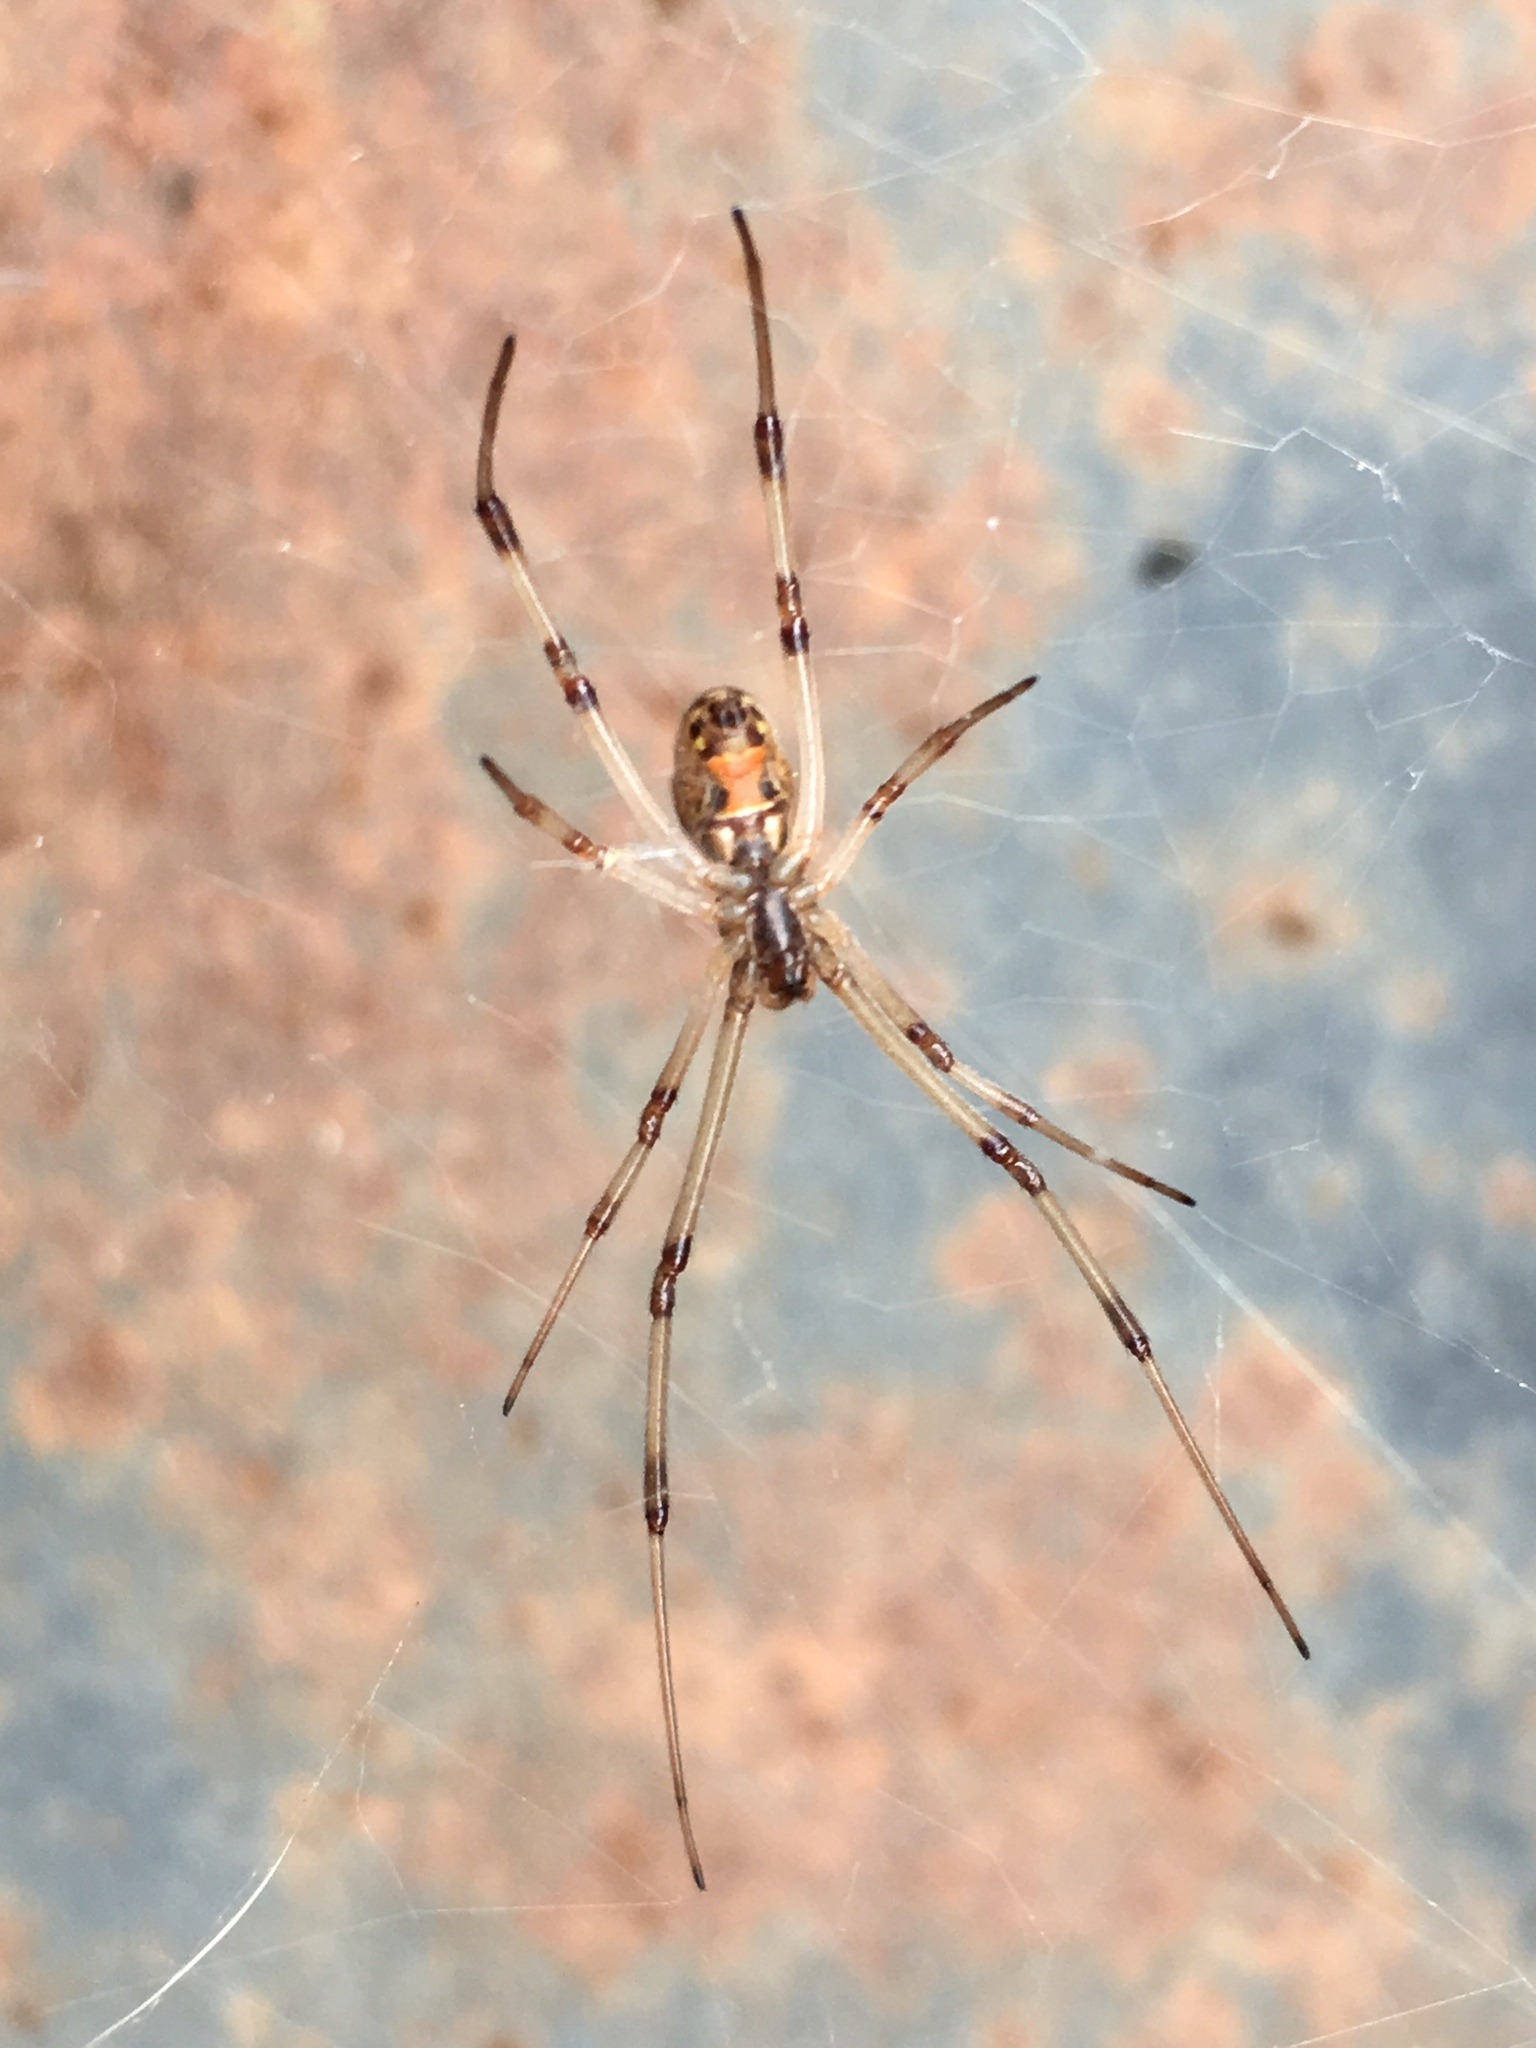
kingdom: Animalia
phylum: Arthropoda
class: Arachnida
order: Araneae
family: Theridiidae
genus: Latrodectus
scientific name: Latrodectus geometricus
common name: Brown widow spider
